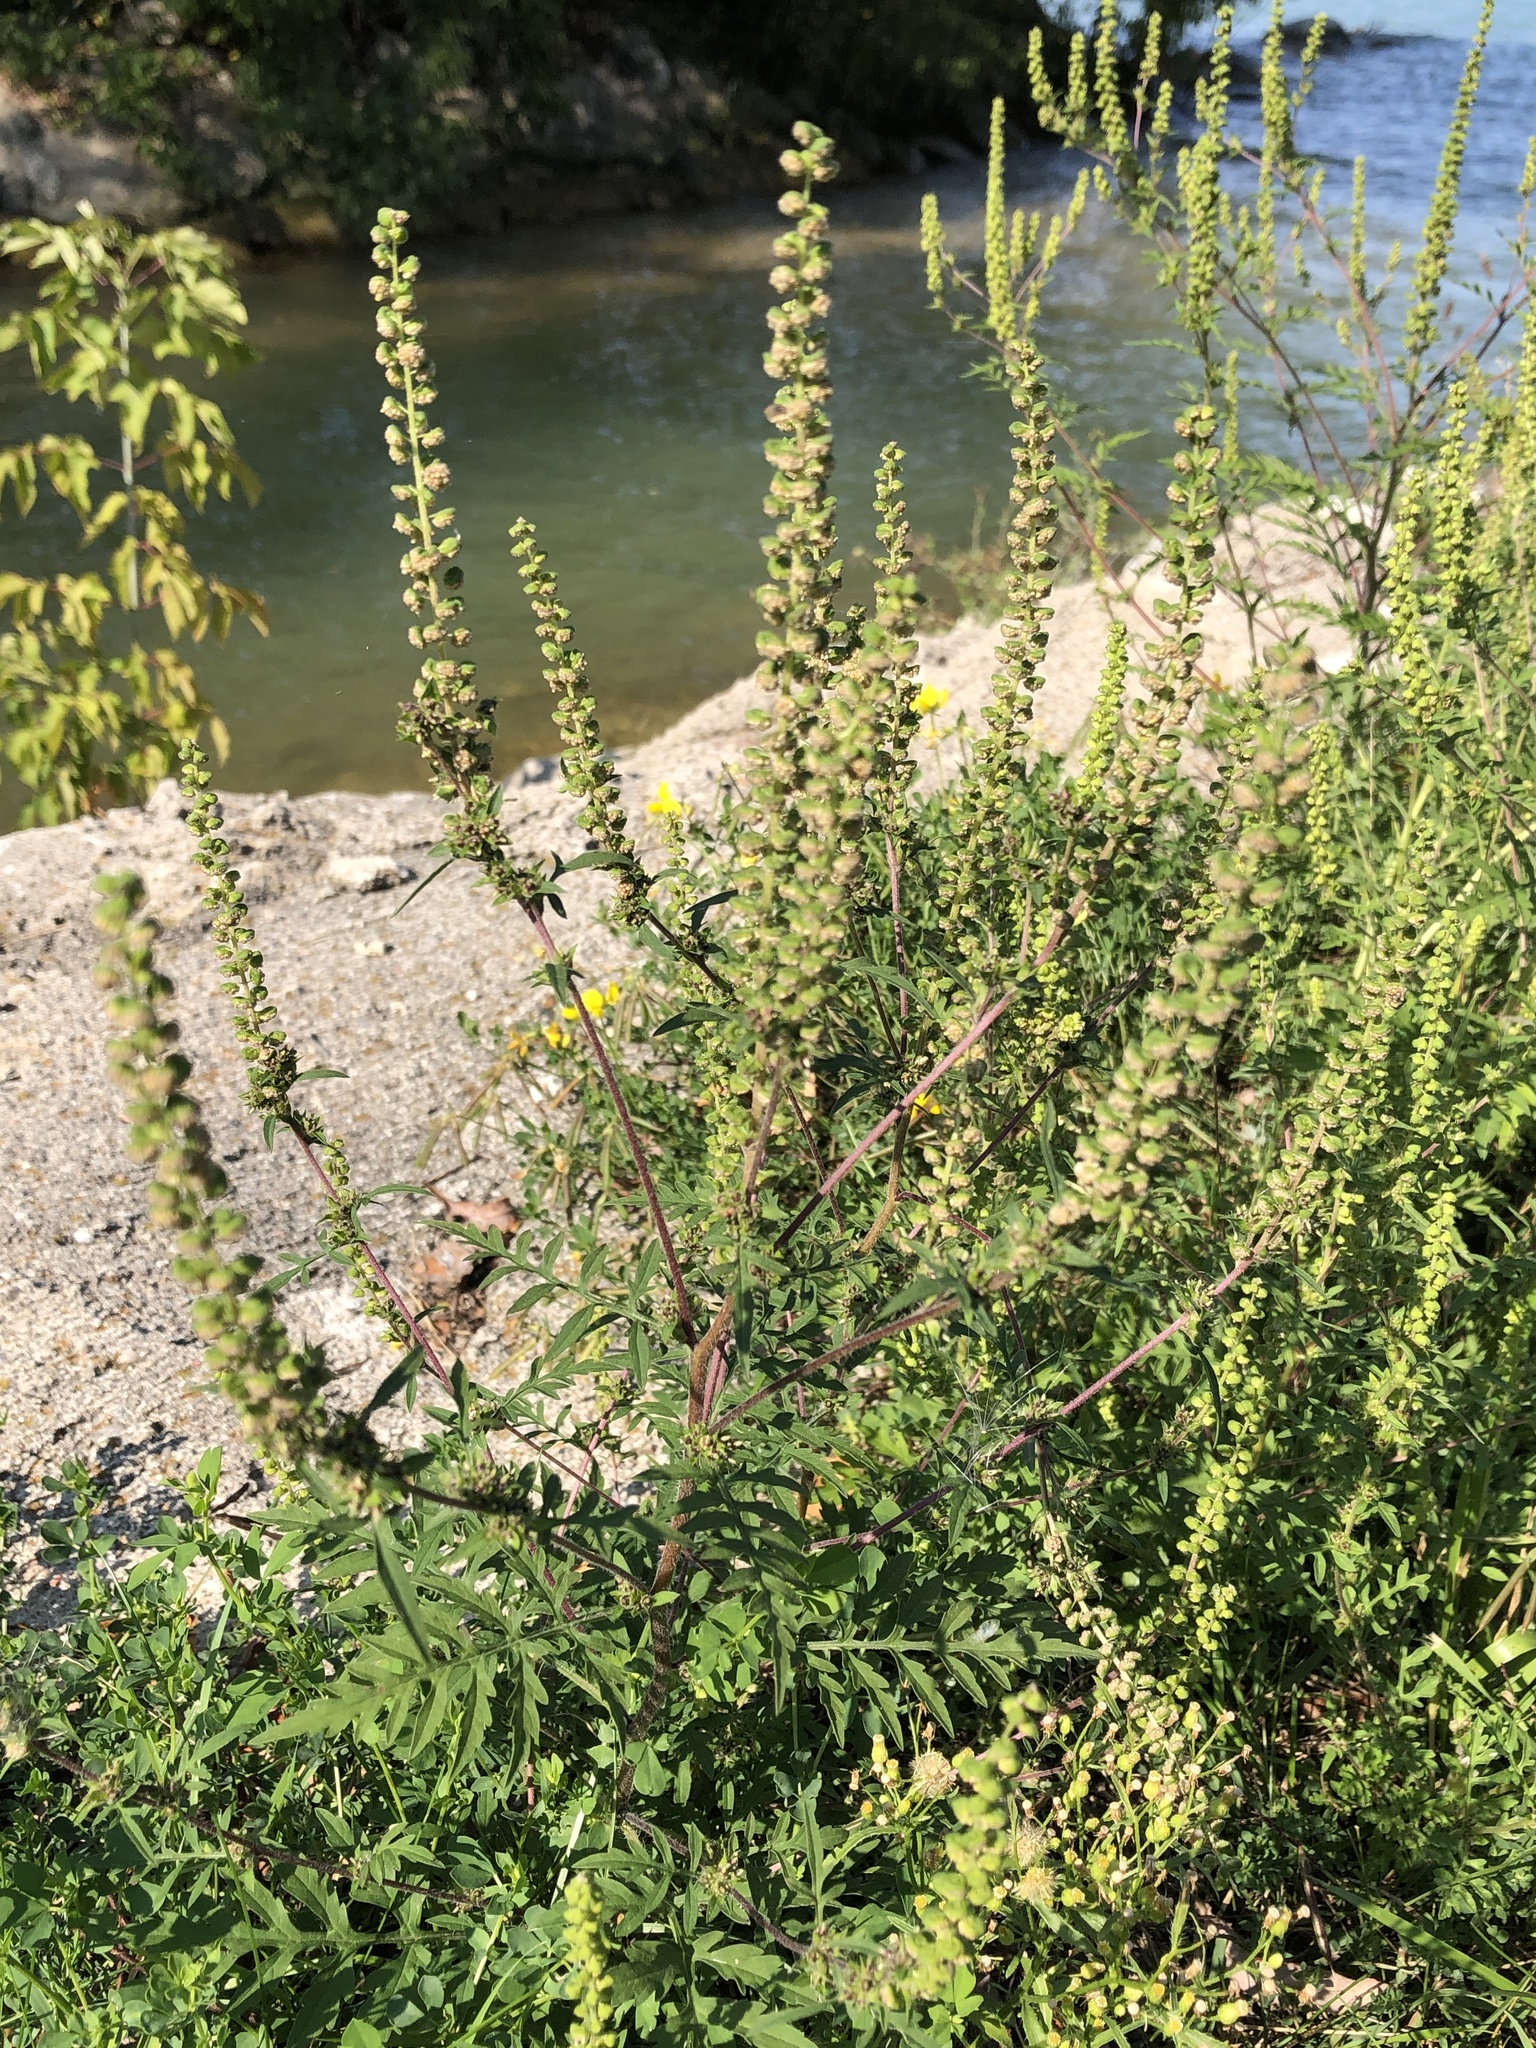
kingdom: Plantae
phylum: Tracheophyta
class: Magnoliopsida
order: Asterales
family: Asteraceae
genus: Ambrosia
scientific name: Ambrosia artemisiifolia
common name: Annual ragweed
